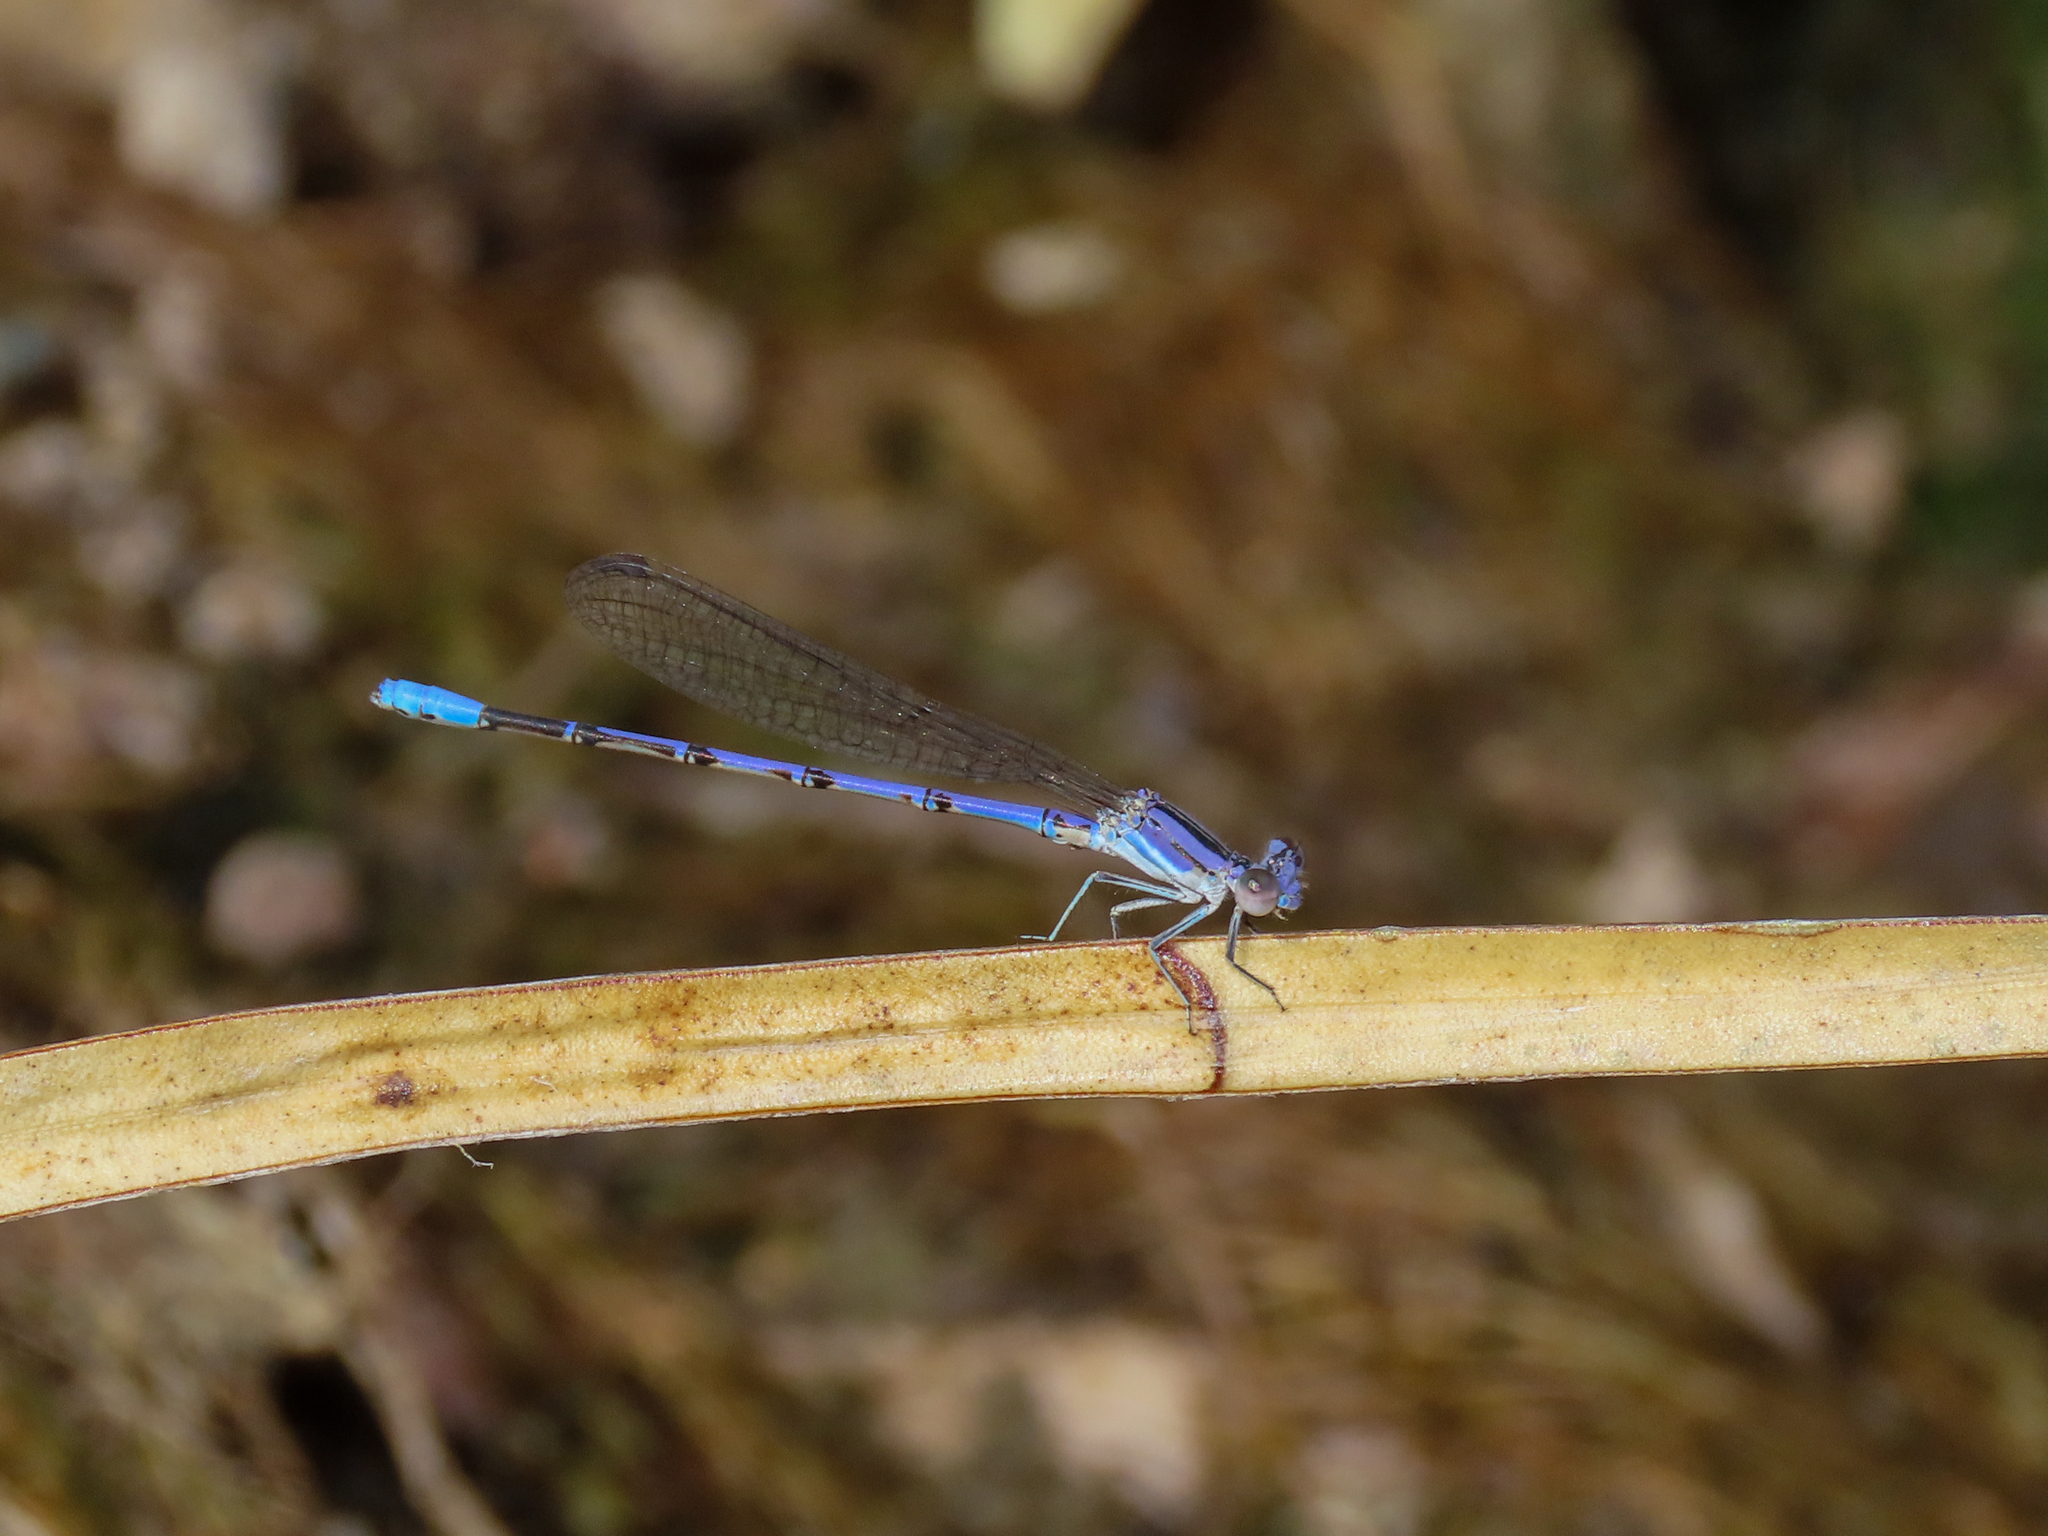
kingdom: Animalia
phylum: Arthropoda
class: Insecta
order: Odonata
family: Coenagrionidae
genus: Argia
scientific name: Argia hinei
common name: Lavender dancer
